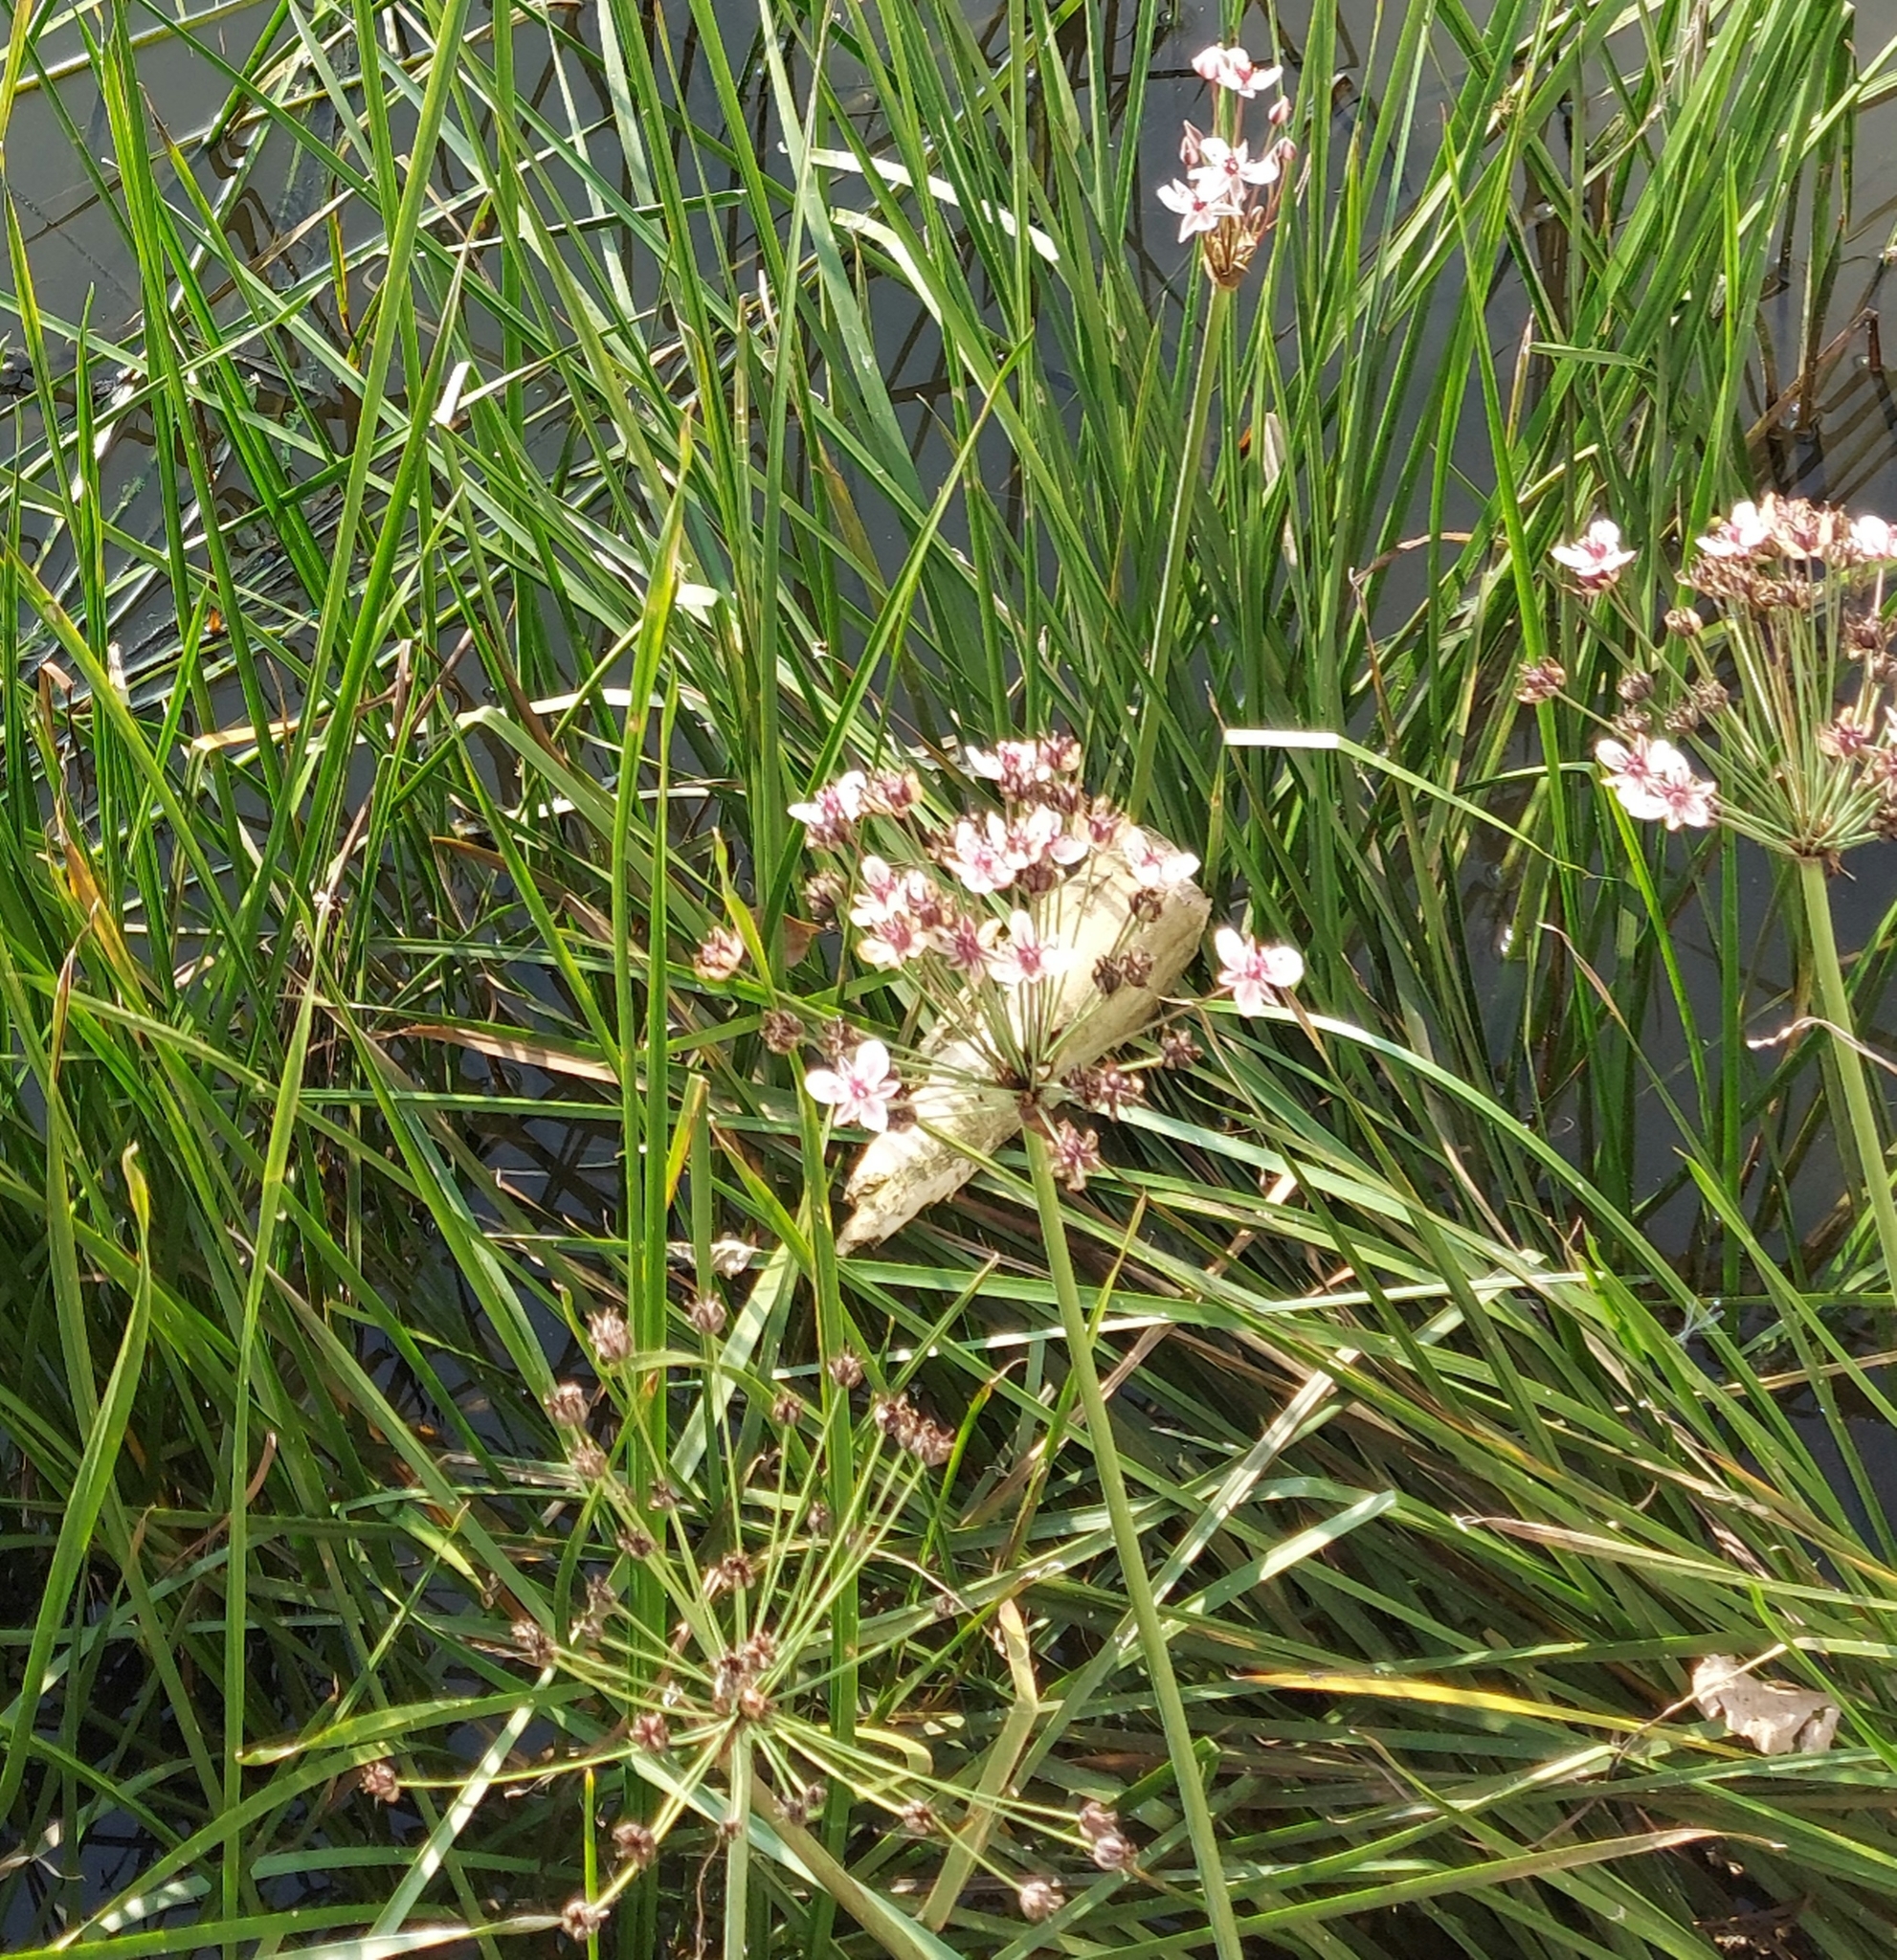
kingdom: Plantae
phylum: Tracheophyta
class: Liliopsida
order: Alismatales
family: Butomaceae
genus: Butomus
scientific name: Butomus umbellatus
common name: Flowering-rush
